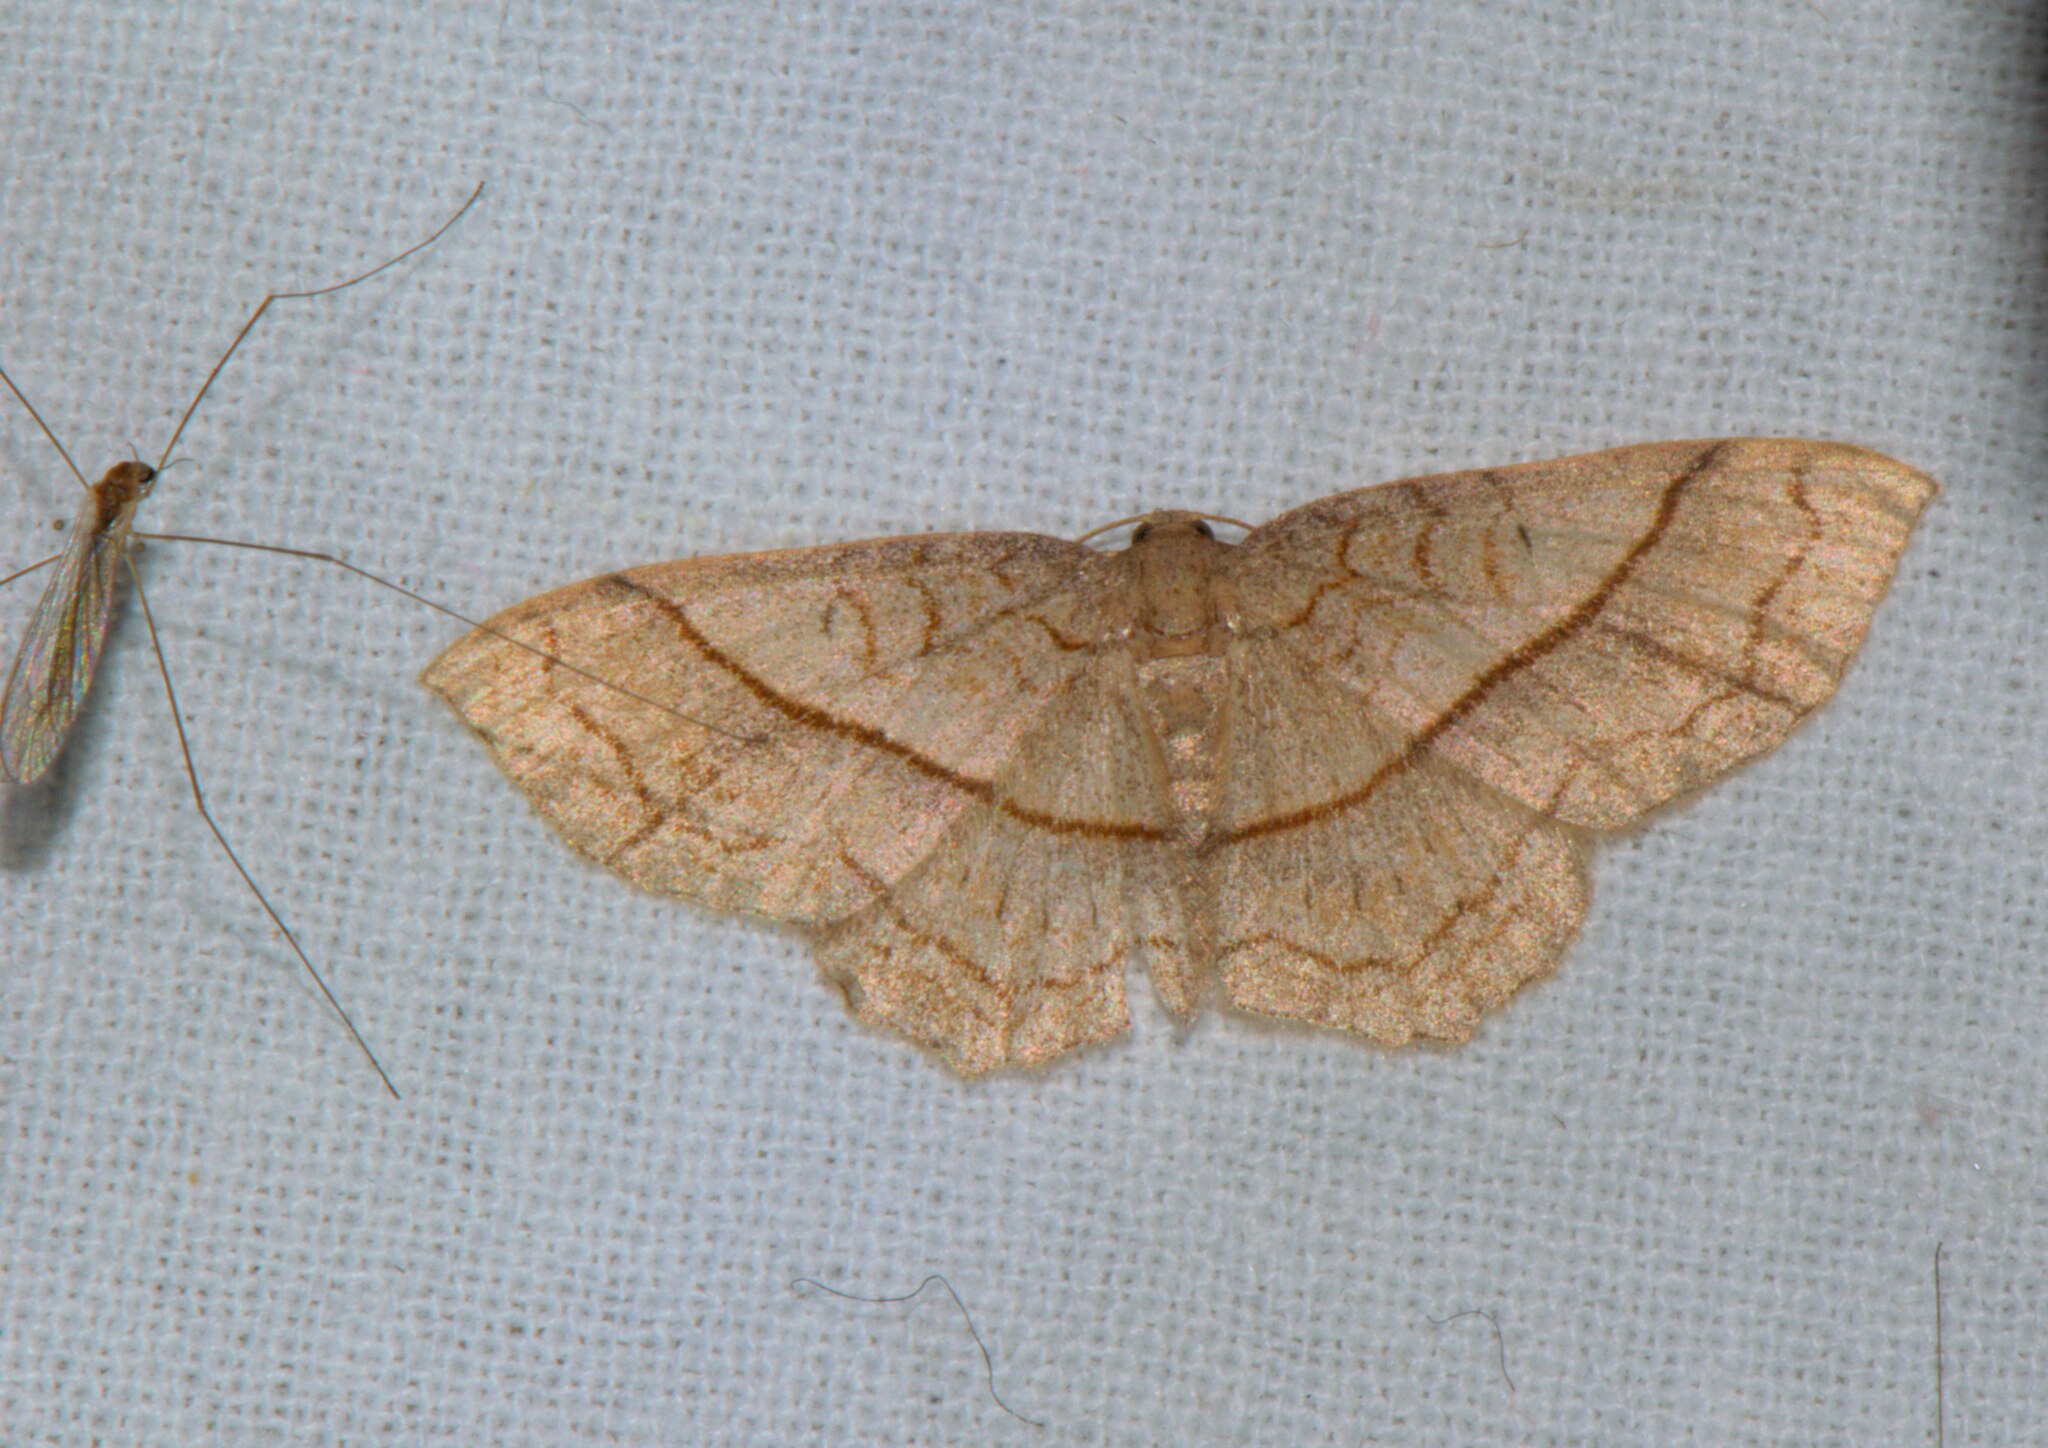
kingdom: Animalia
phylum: Arthropoda
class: Insecta
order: Lepidoptera
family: Geometridae
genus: Hydrelia
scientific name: Hydrelia sericea
